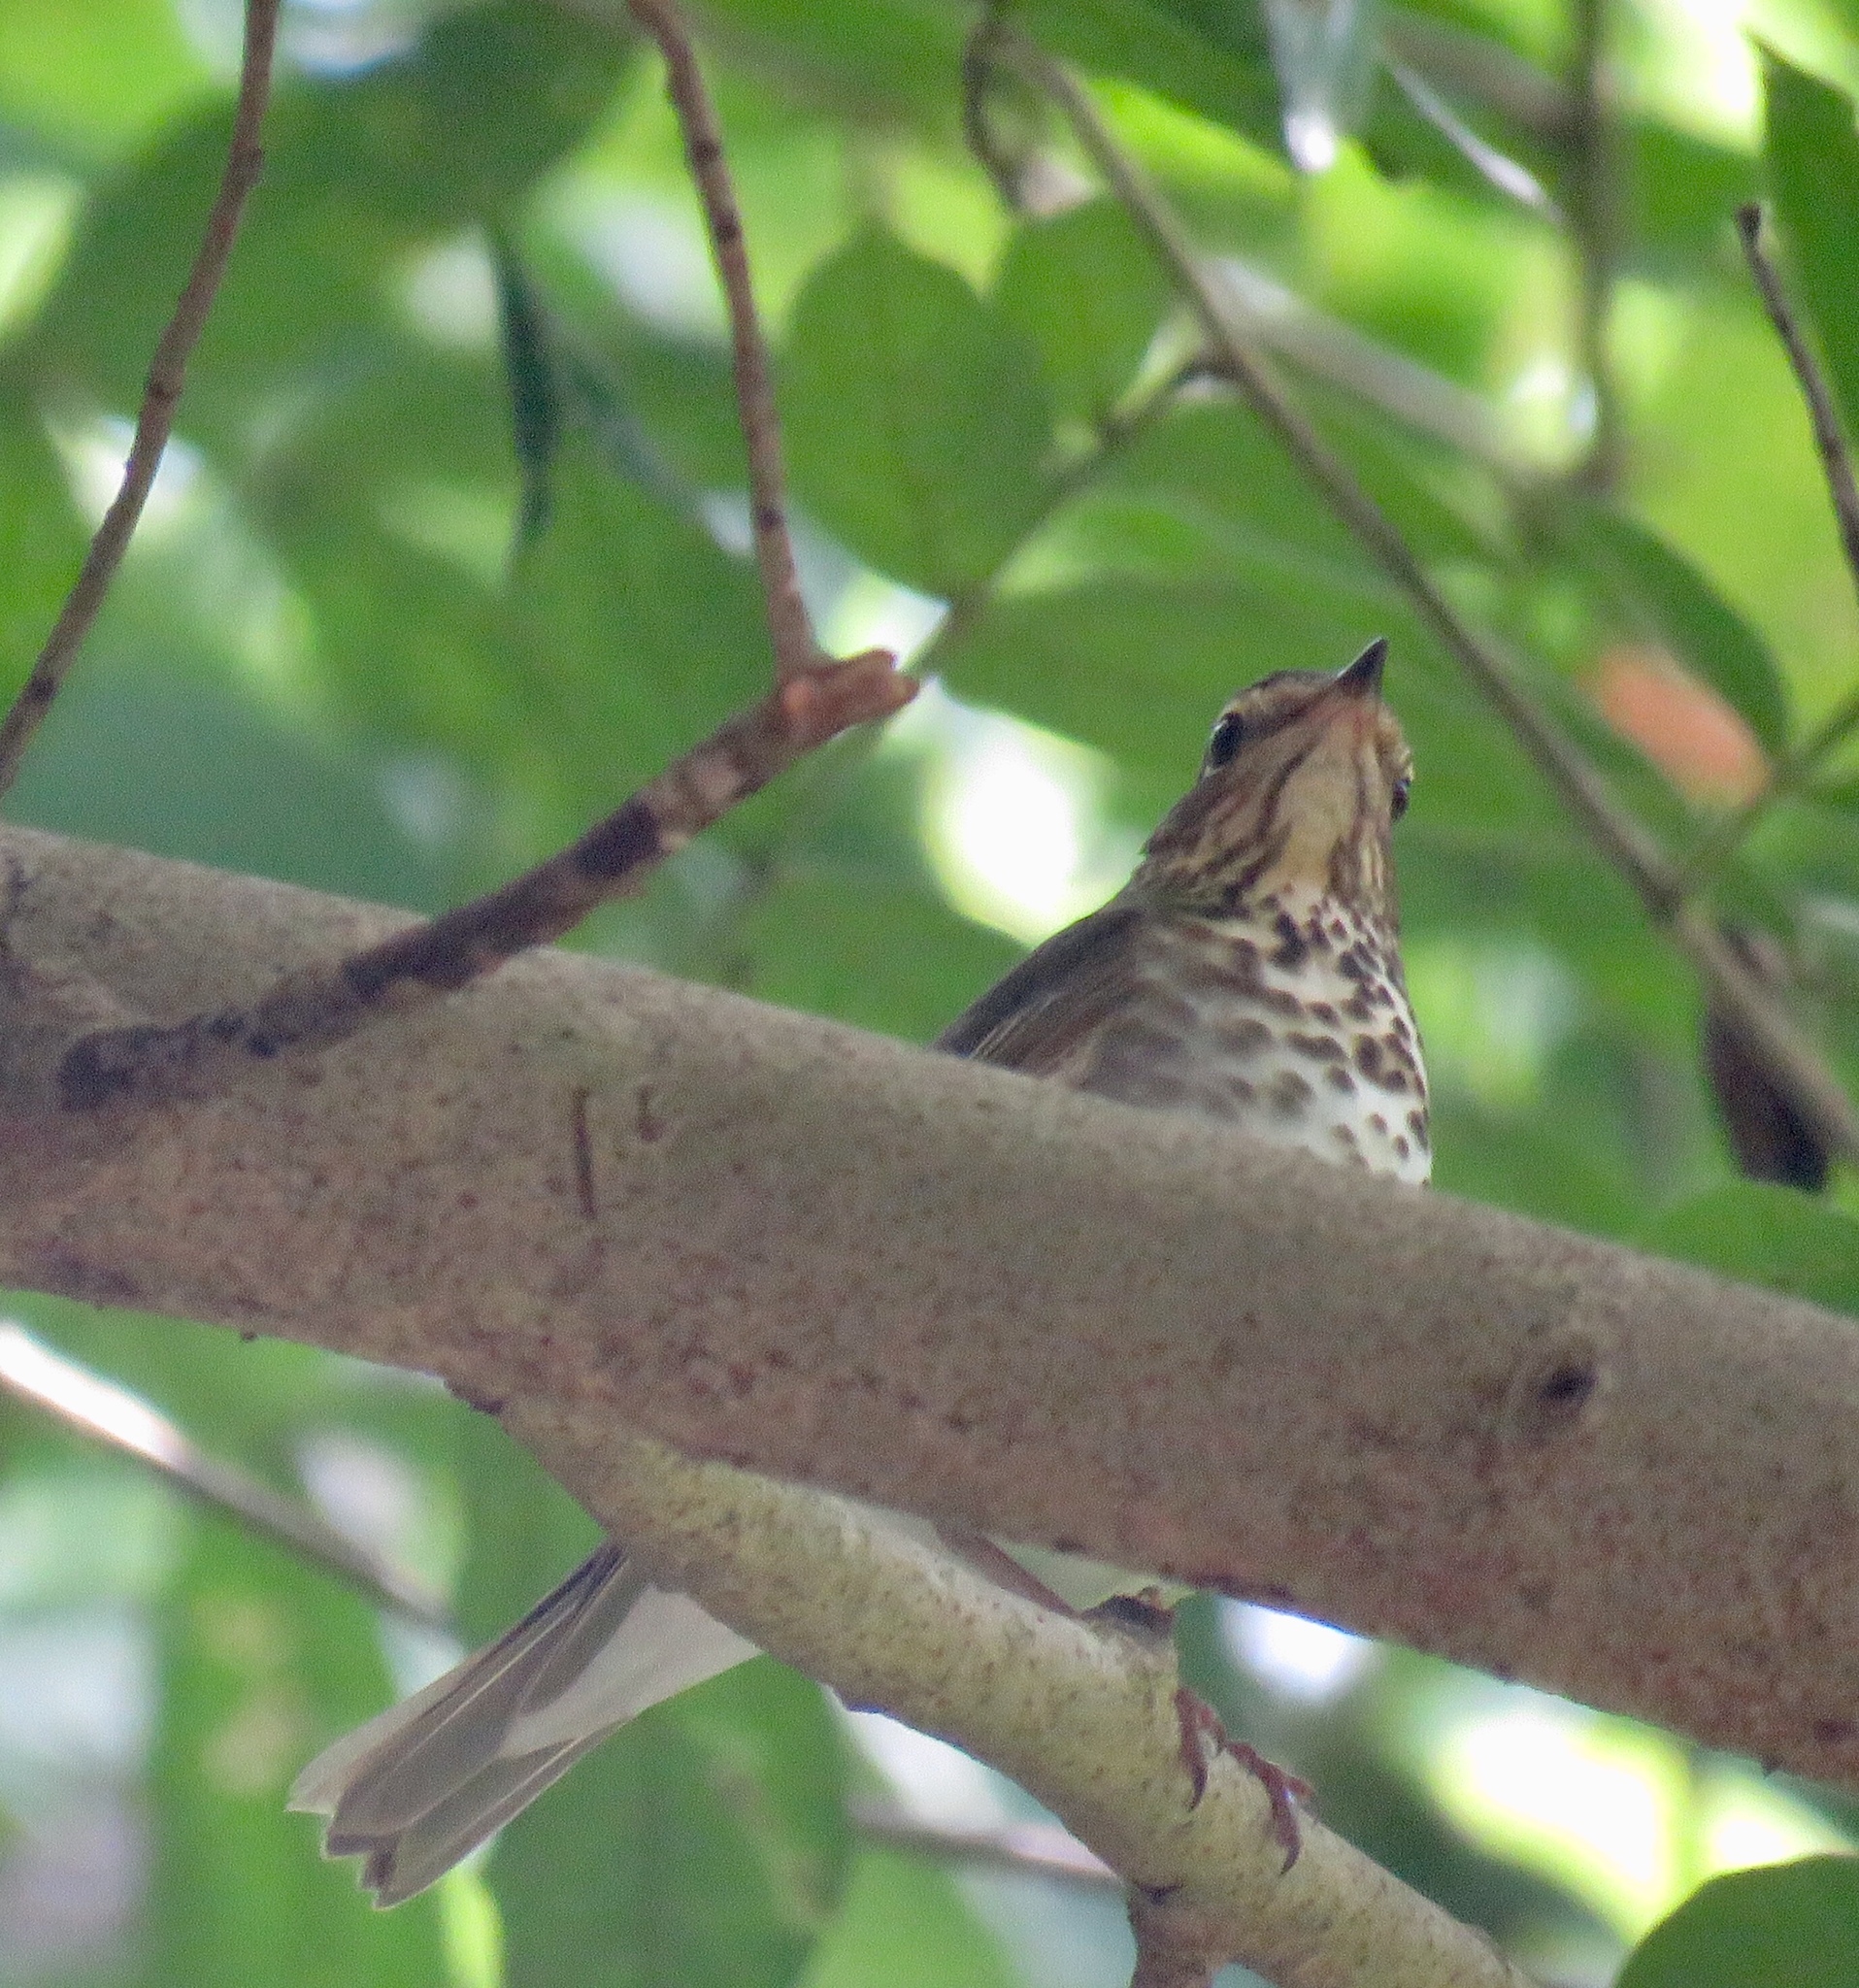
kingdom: Animalia
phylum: Chordata
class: Aves
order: Passeriformes
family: Turdidae
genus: Catharus
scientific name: Catharus ustulatus
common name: Swainson's thrush
